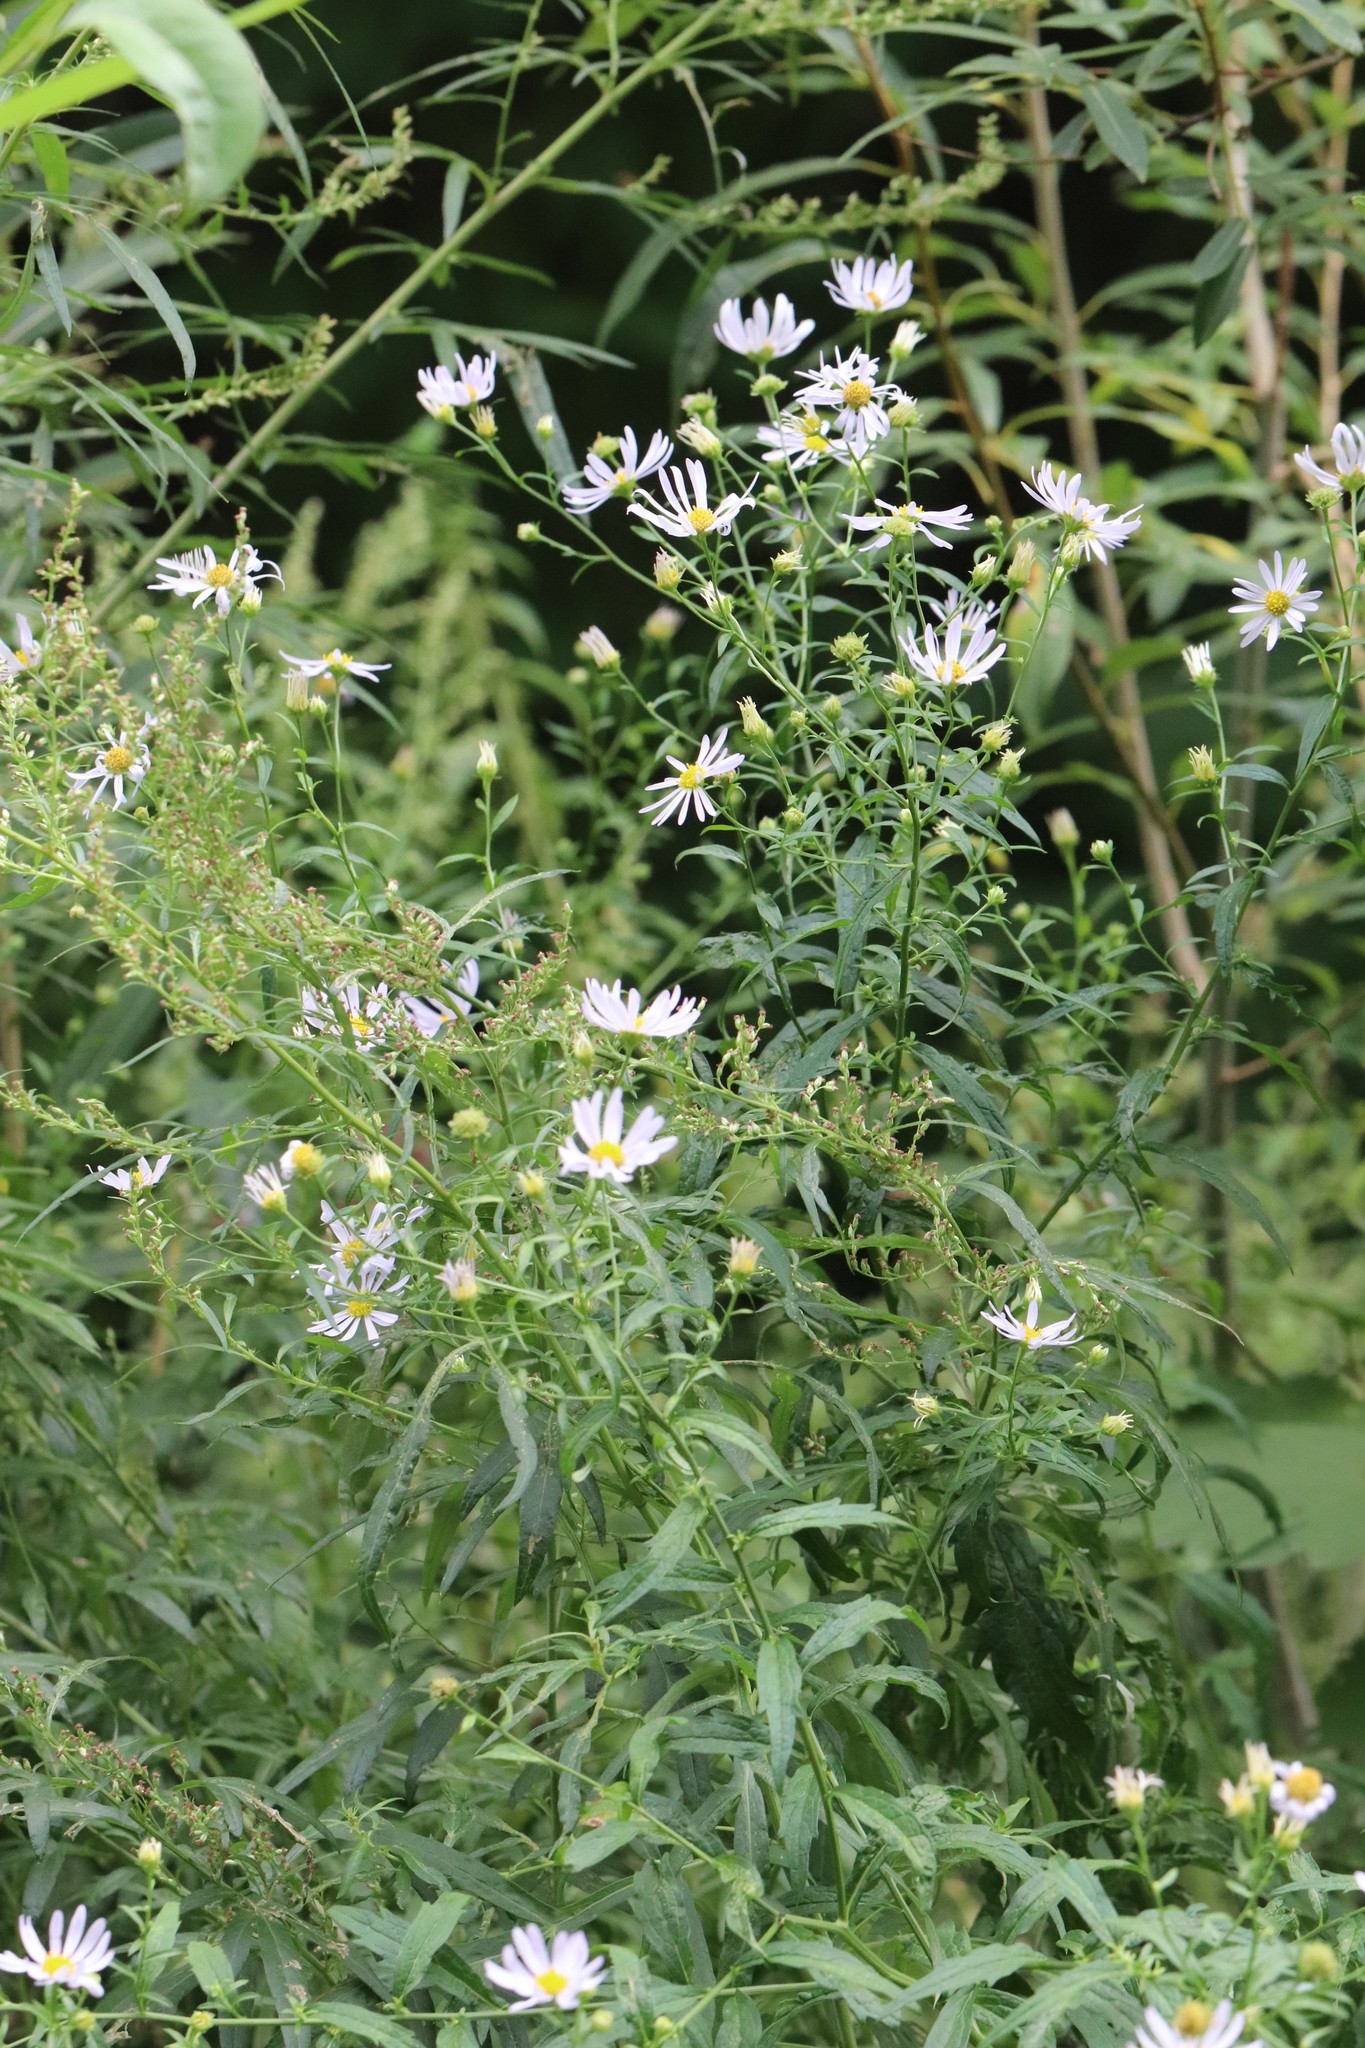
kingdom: Plantae
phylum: Tracheophyta
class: Magnoliopsida
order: Asterales
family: Asteraceae
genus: Kalimeris
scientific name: Kalimeris incisa
